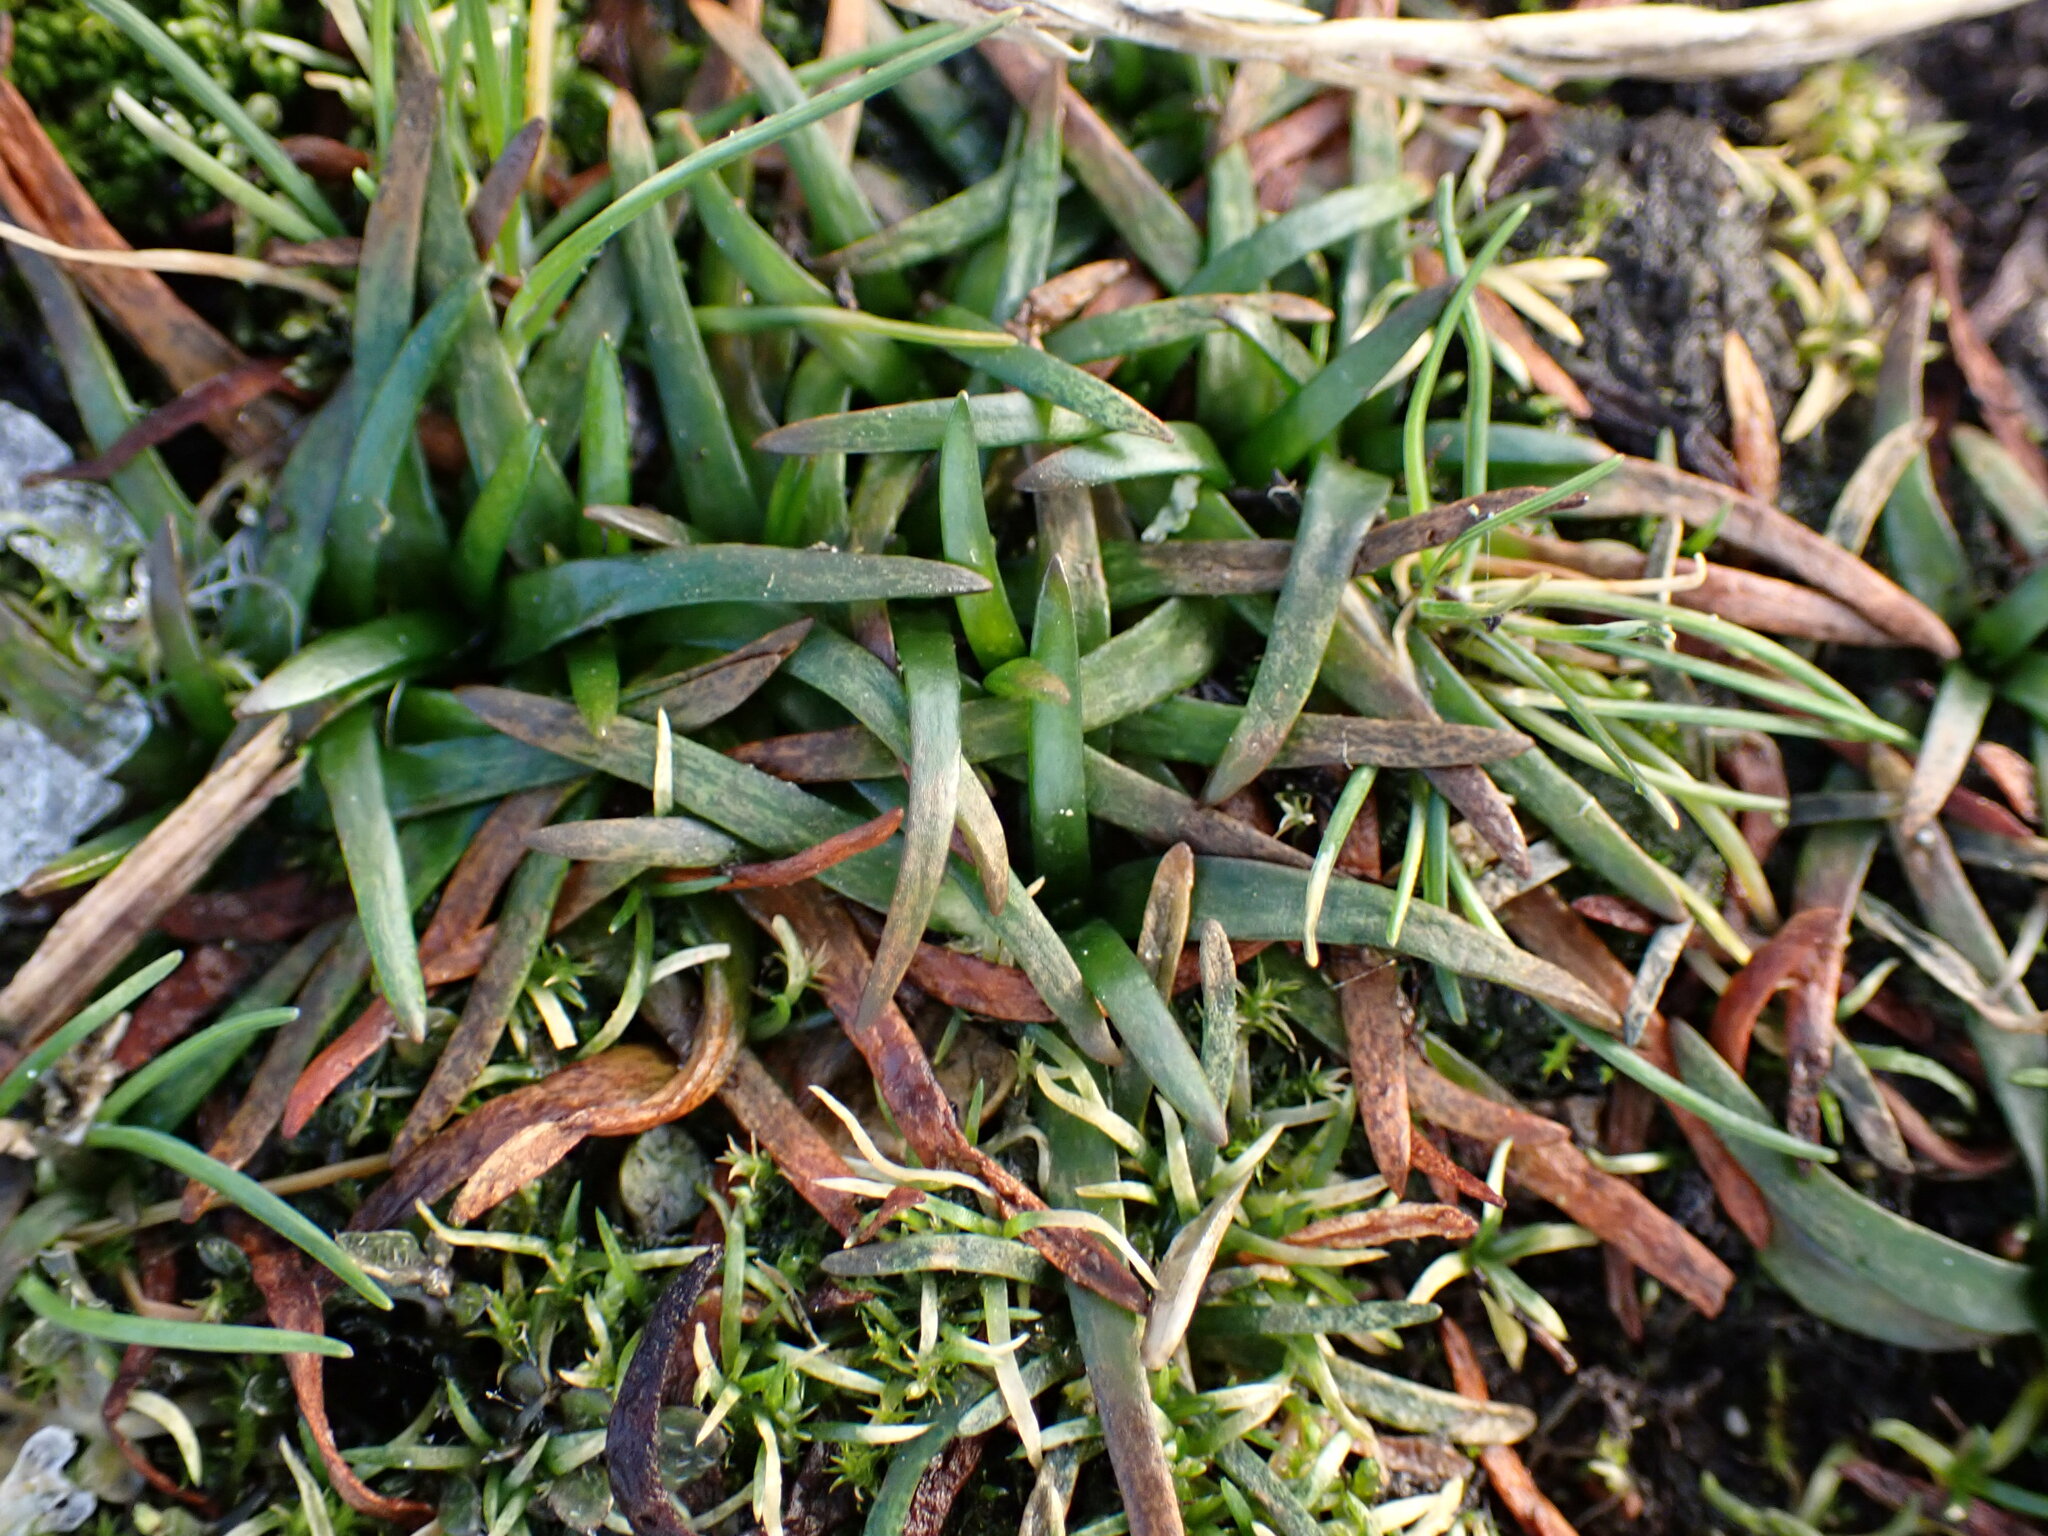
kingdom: Plantae
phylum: Tracheophyta
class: Magnoliopsida
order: Caryophyllales
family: Plumbaginaceae
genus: Armeria
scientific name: Armeria maritima
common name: Thrift
